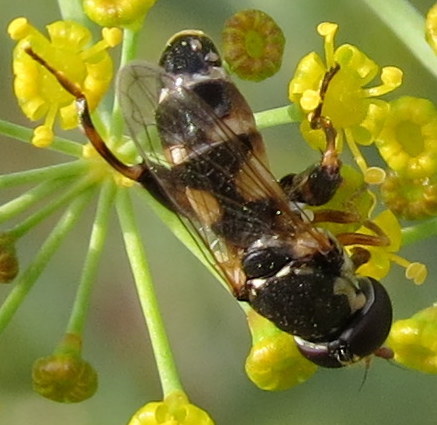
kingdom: Animalia
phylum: Arthropoda
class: Insecta
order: Diptera
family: Syrphidae
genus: Syritta
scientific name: Syritta pipiens
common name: Hover fly
